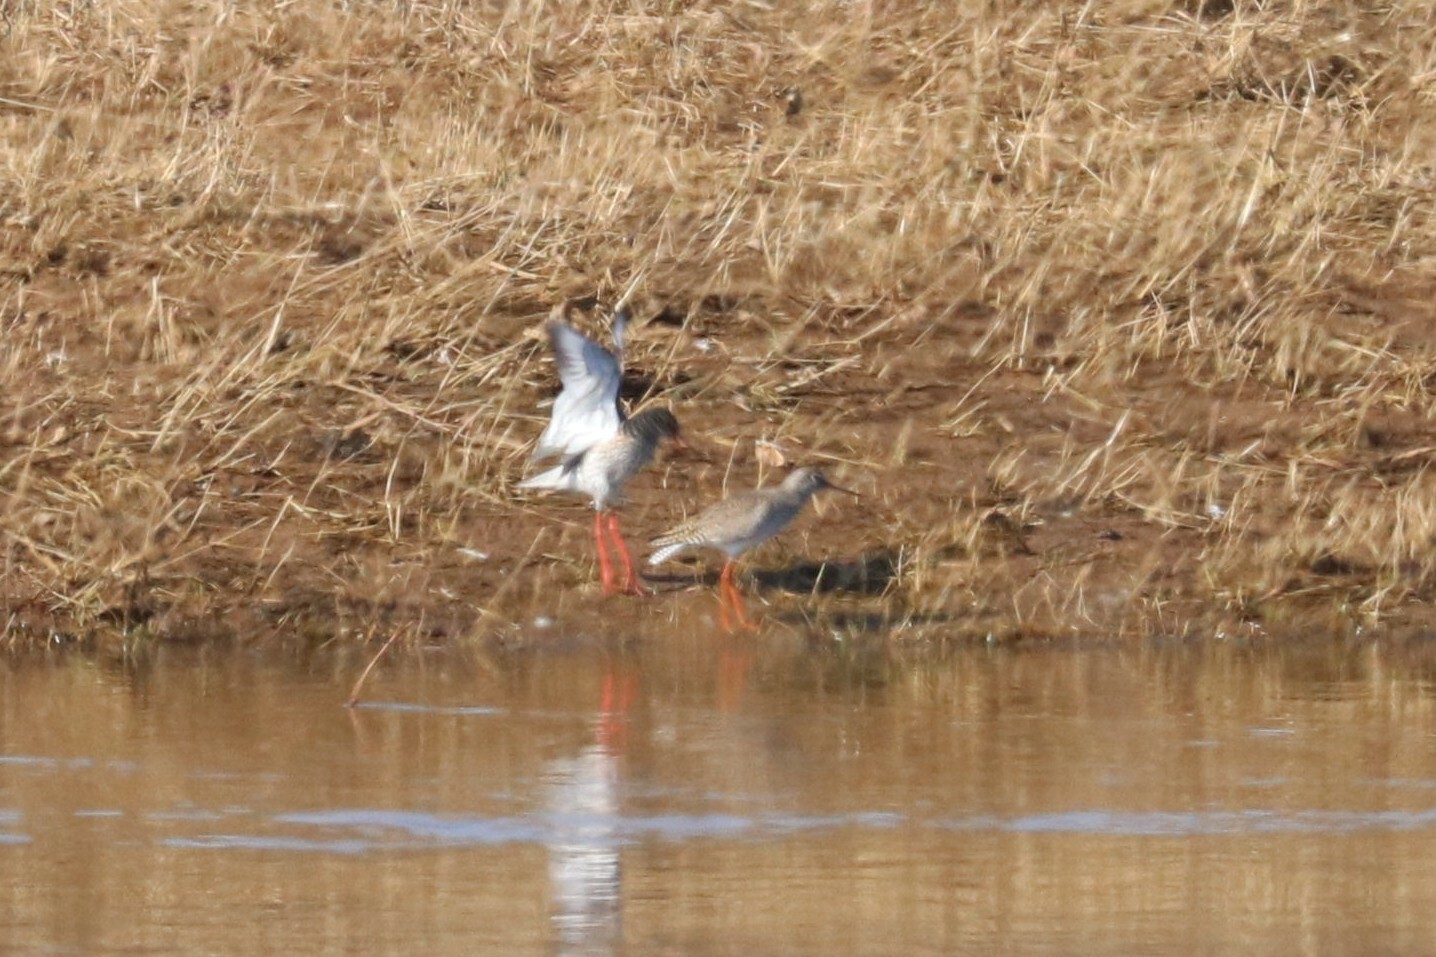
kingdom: Animalia
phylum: Chordata
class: Aves
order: Charadriiformes
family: Scolopacidae
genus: Tringa
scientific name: Tringa totanus
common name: Common redshank
